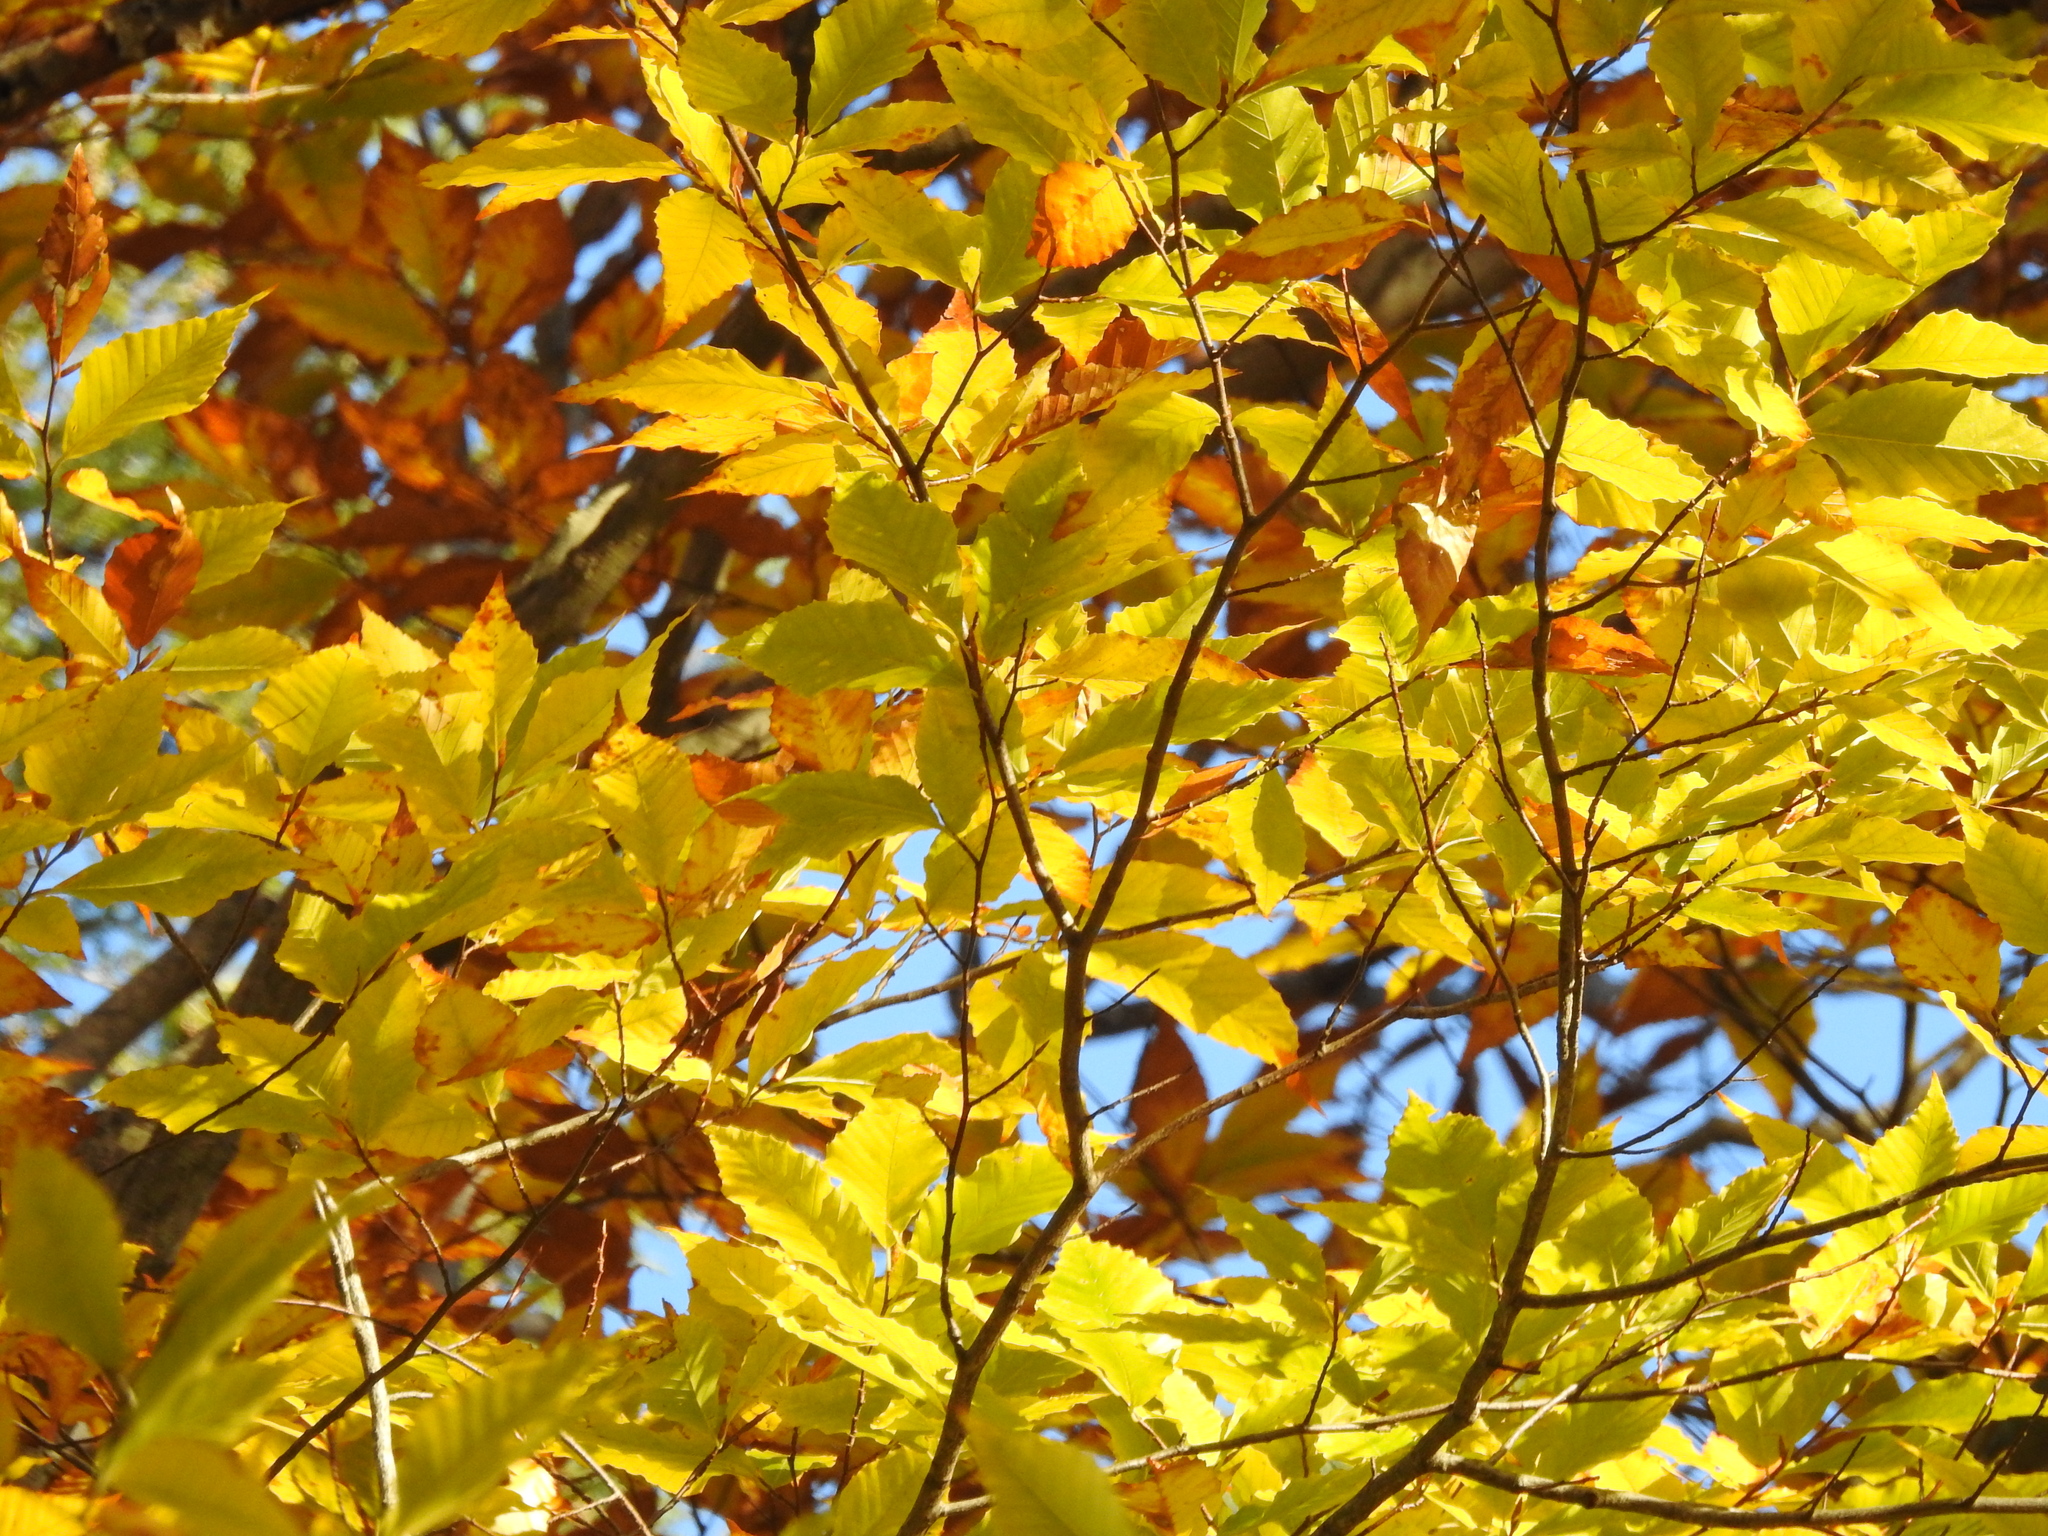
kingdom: Plantae
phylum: Tracheophyta
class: Magnoliopsida
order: Fagales
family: Fagaceae
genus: Fagus
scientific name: Fagus grandifolia
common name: American beech
